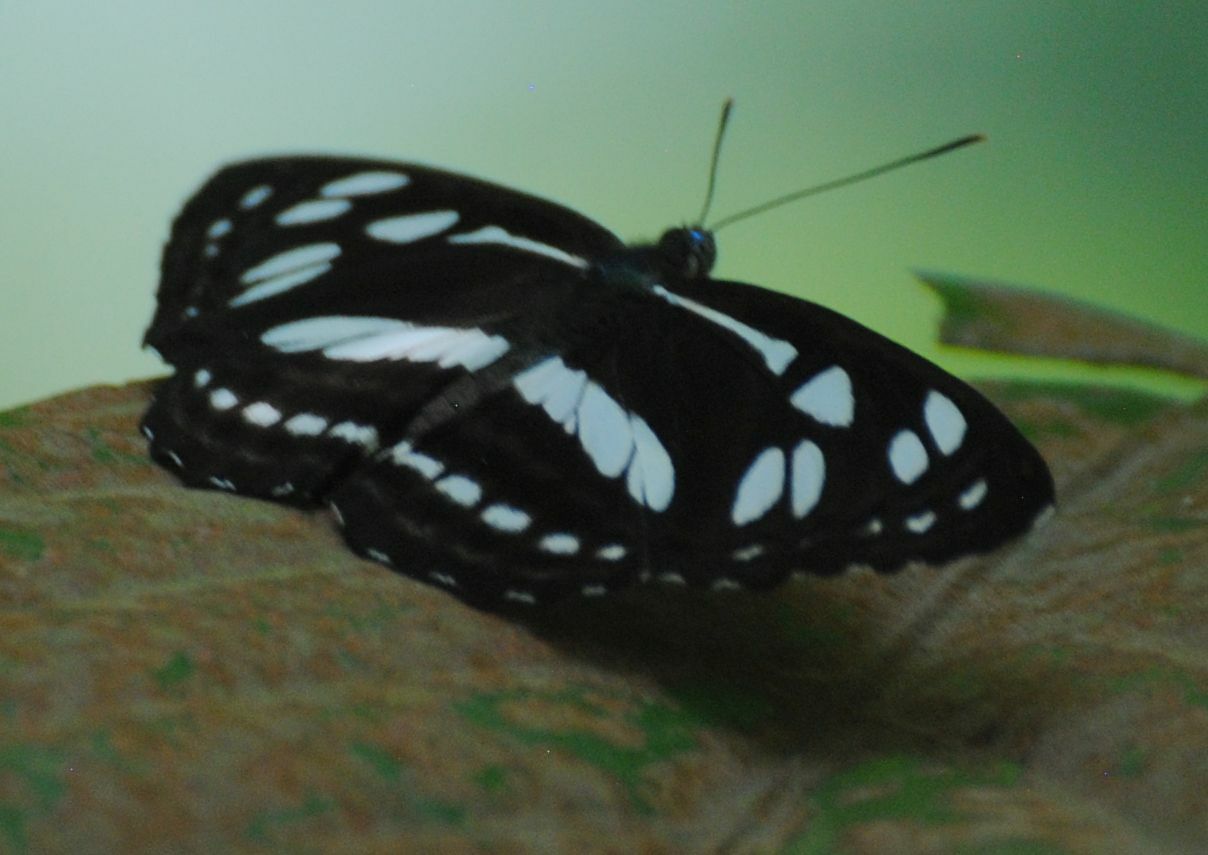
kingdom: Animalia
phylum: Arthropoda
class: Insecta
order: Lepidoptera
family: Nymphalidae
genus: Phaedyma
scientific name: Phaedyma columella
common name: Short banded sailer
